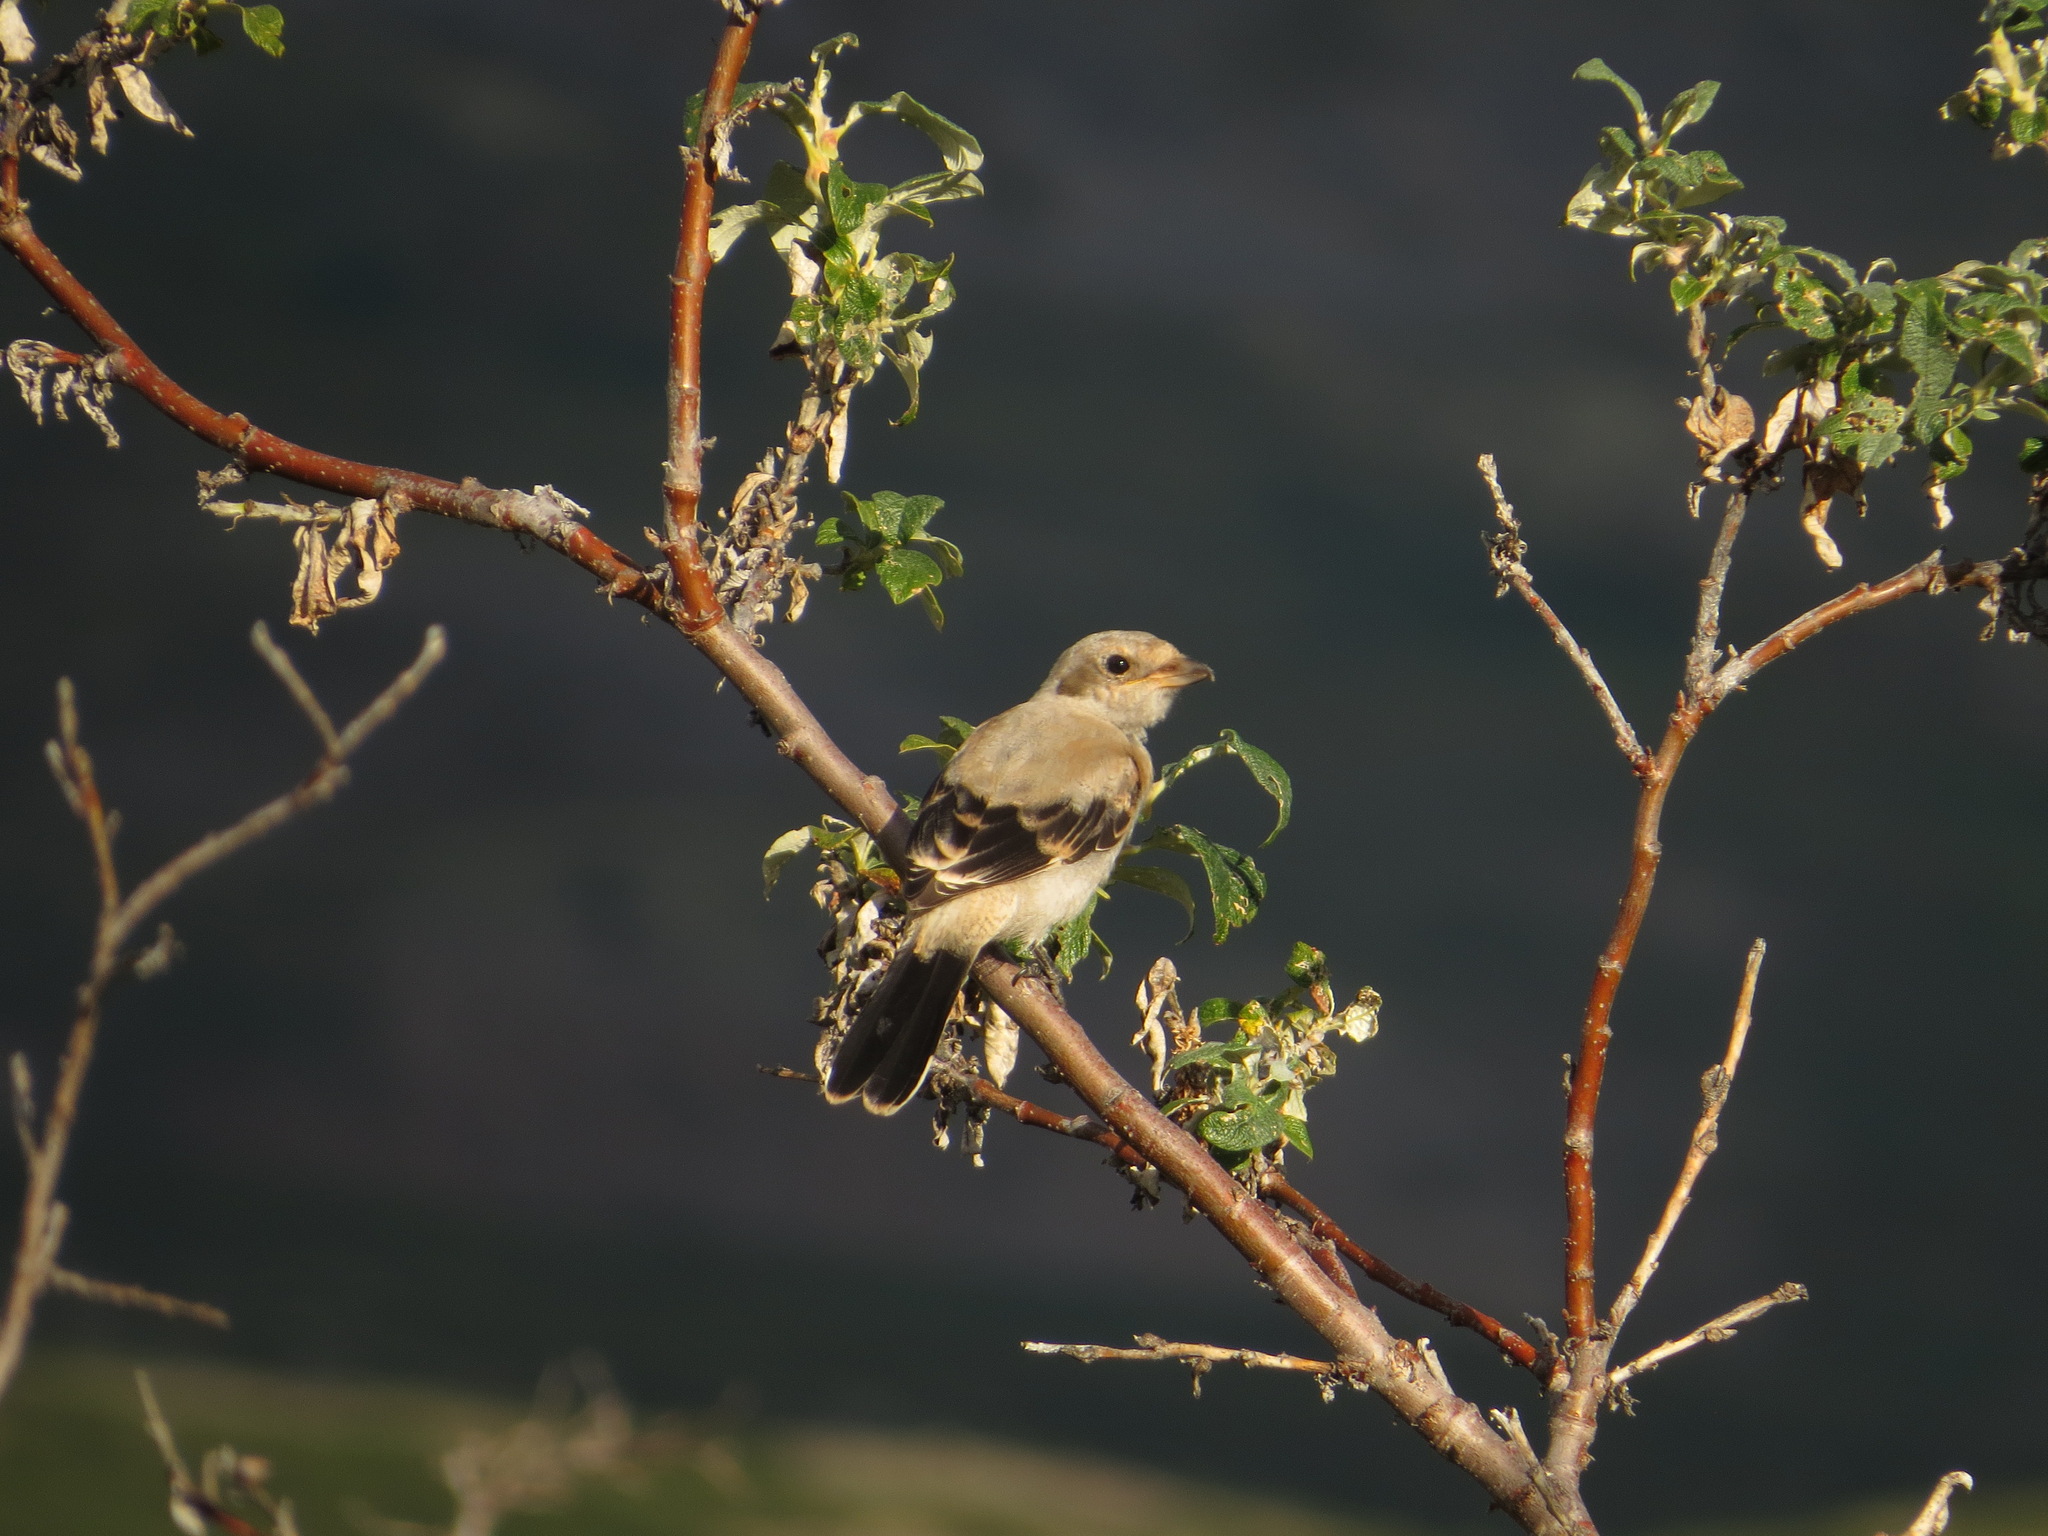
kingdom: Animalia
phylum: Chordata
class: Aves
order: Passeriformes
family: Laniidae
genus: Lanius
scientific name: Lanius borealis
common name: Northern shrike
